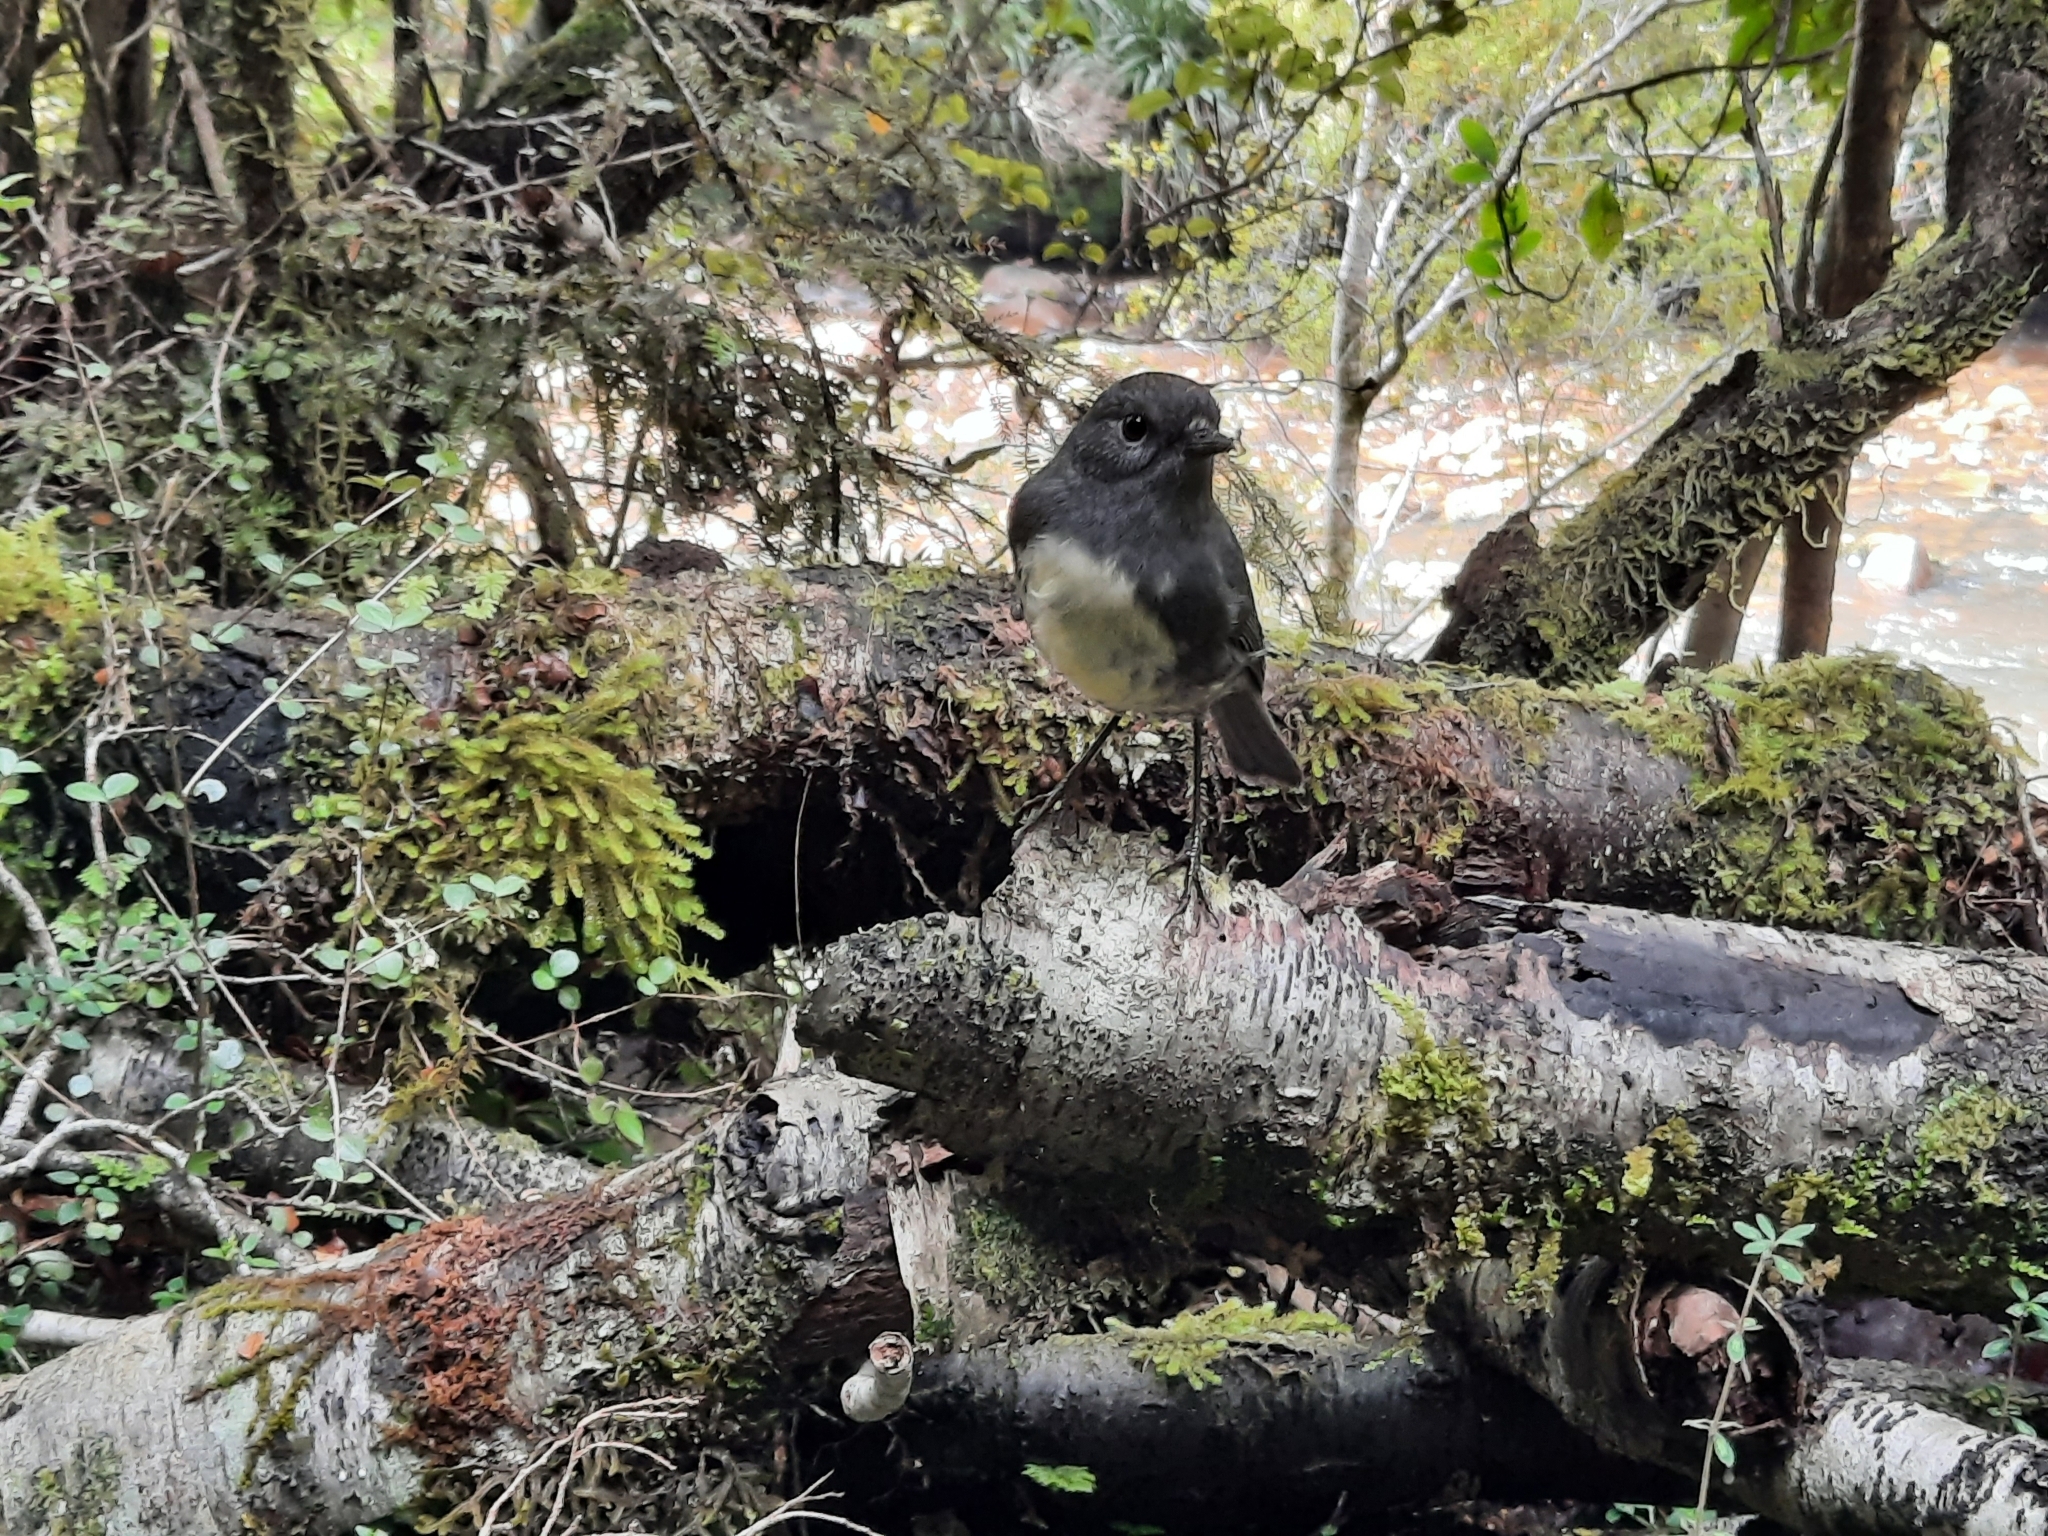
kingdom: Animalia
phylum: Chordata
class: Aves
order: Passeriformes
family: Petroicidae
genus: Petroica
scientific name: Petroica australis
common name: New zealand robin
